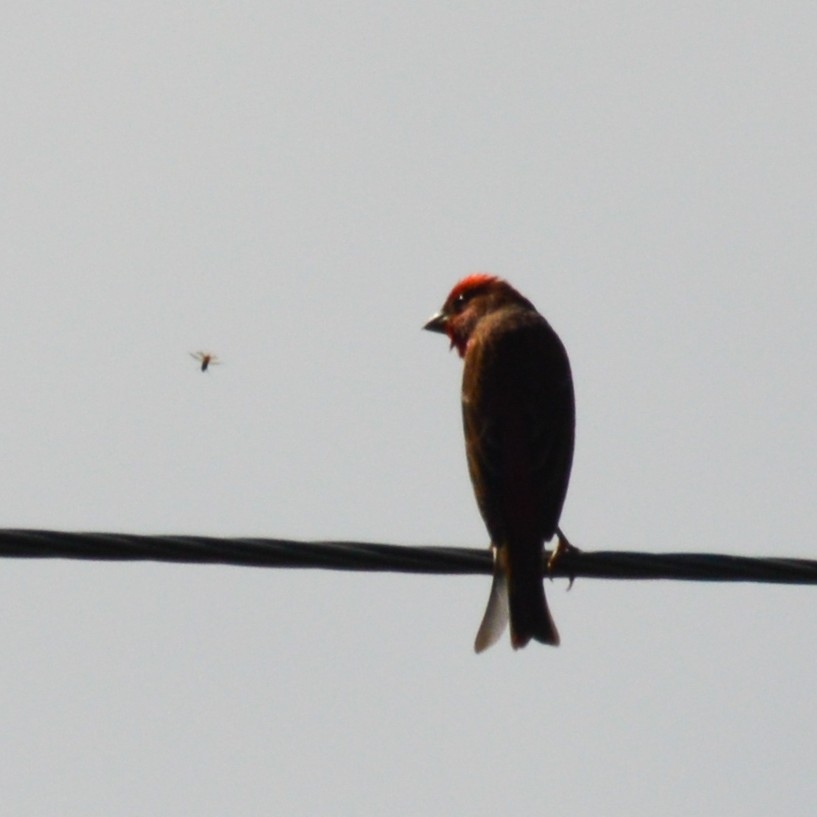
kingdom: Animalia
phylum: Chordata
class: Aves
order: Passeriformes
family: Fringillidae
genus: Carpodacus
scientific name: Carpodacus erythrinus
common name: Common rosefinch
